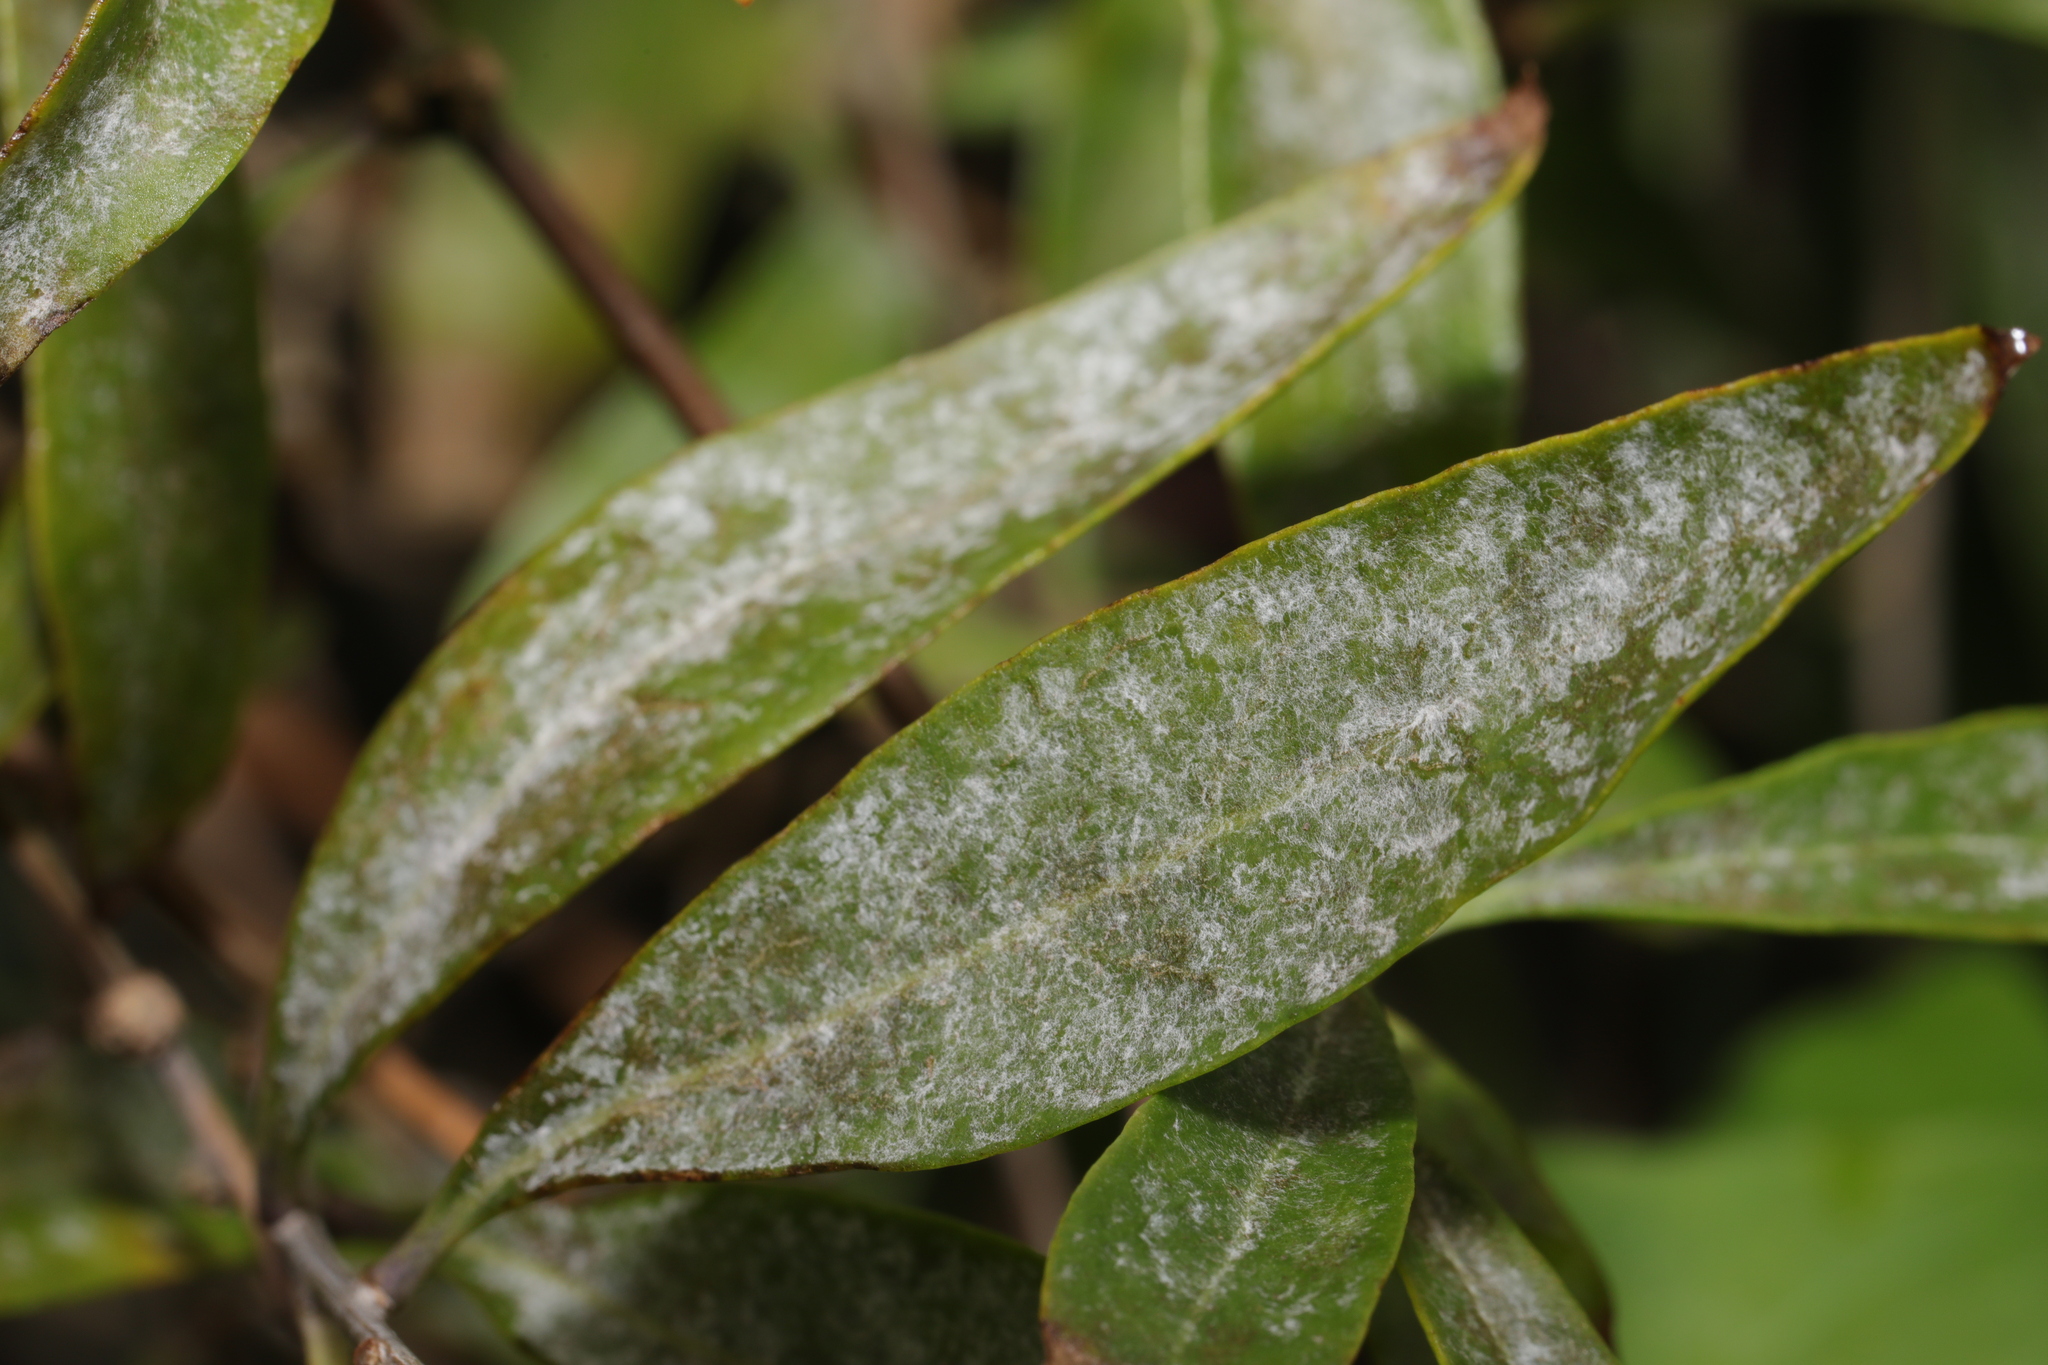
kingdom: Fungi
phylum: Ascomycota
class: Leotiomycetes
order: Helotiales
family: Erysiphaceae
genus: Erysiphe
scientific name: Erysiphe mougeotii
